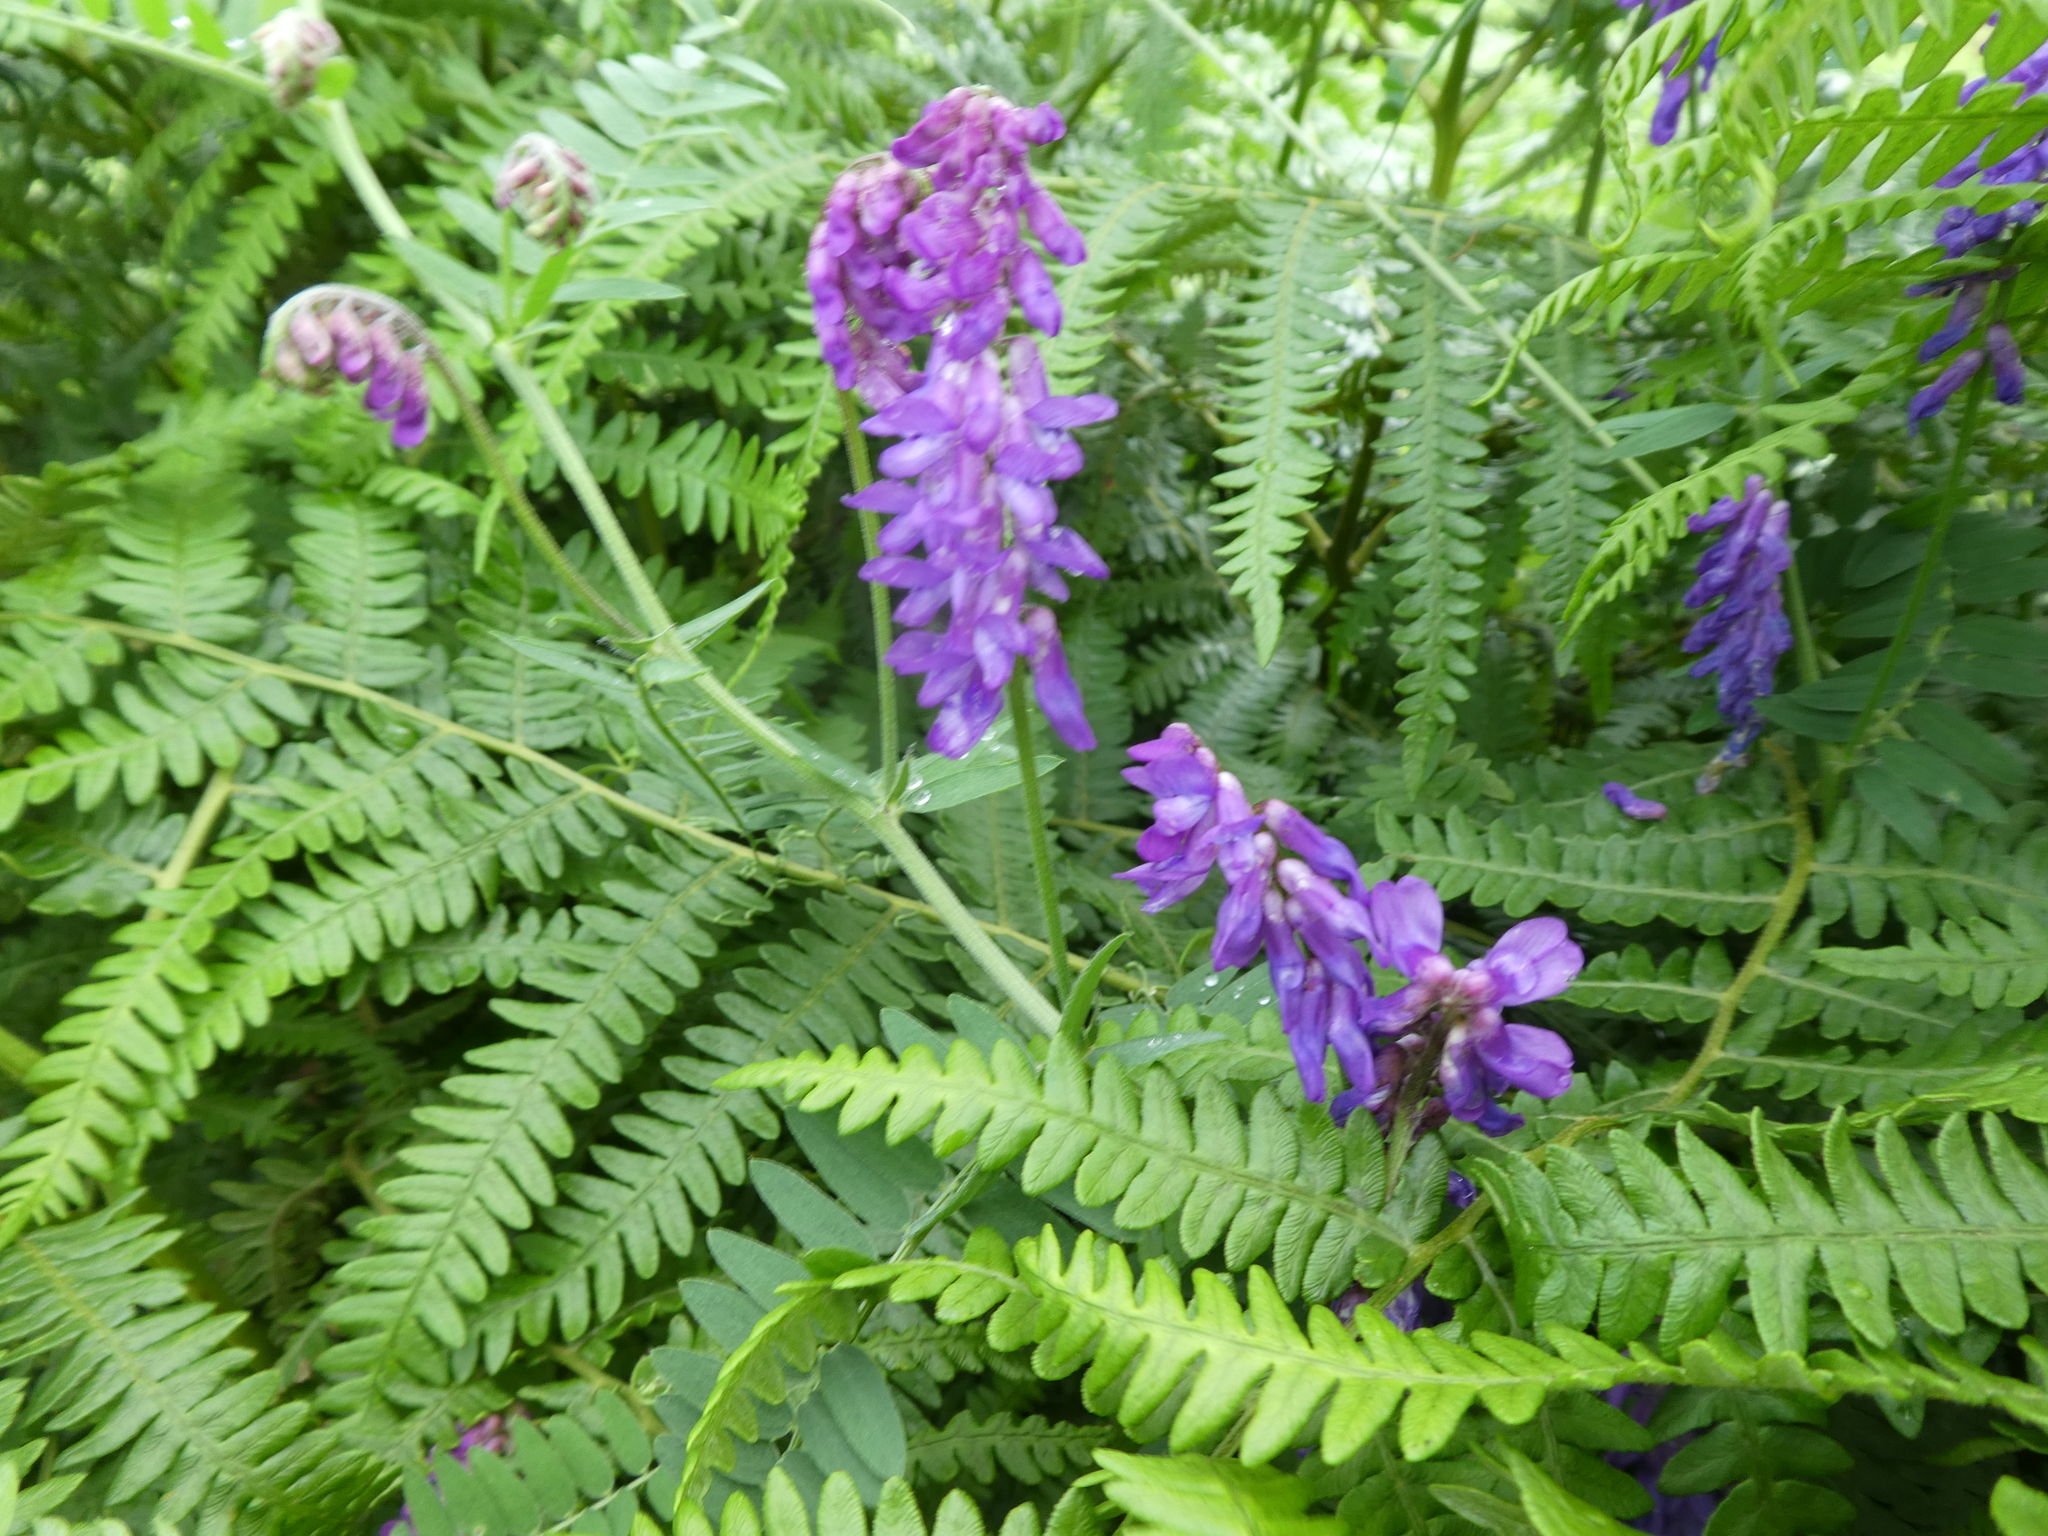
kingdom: Plantae
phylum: Tracheophyta
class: Magnoliopsida
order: Fabales
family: Fabaceae
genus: Vicia
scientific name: Vicia cracca
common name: Bird vetch
